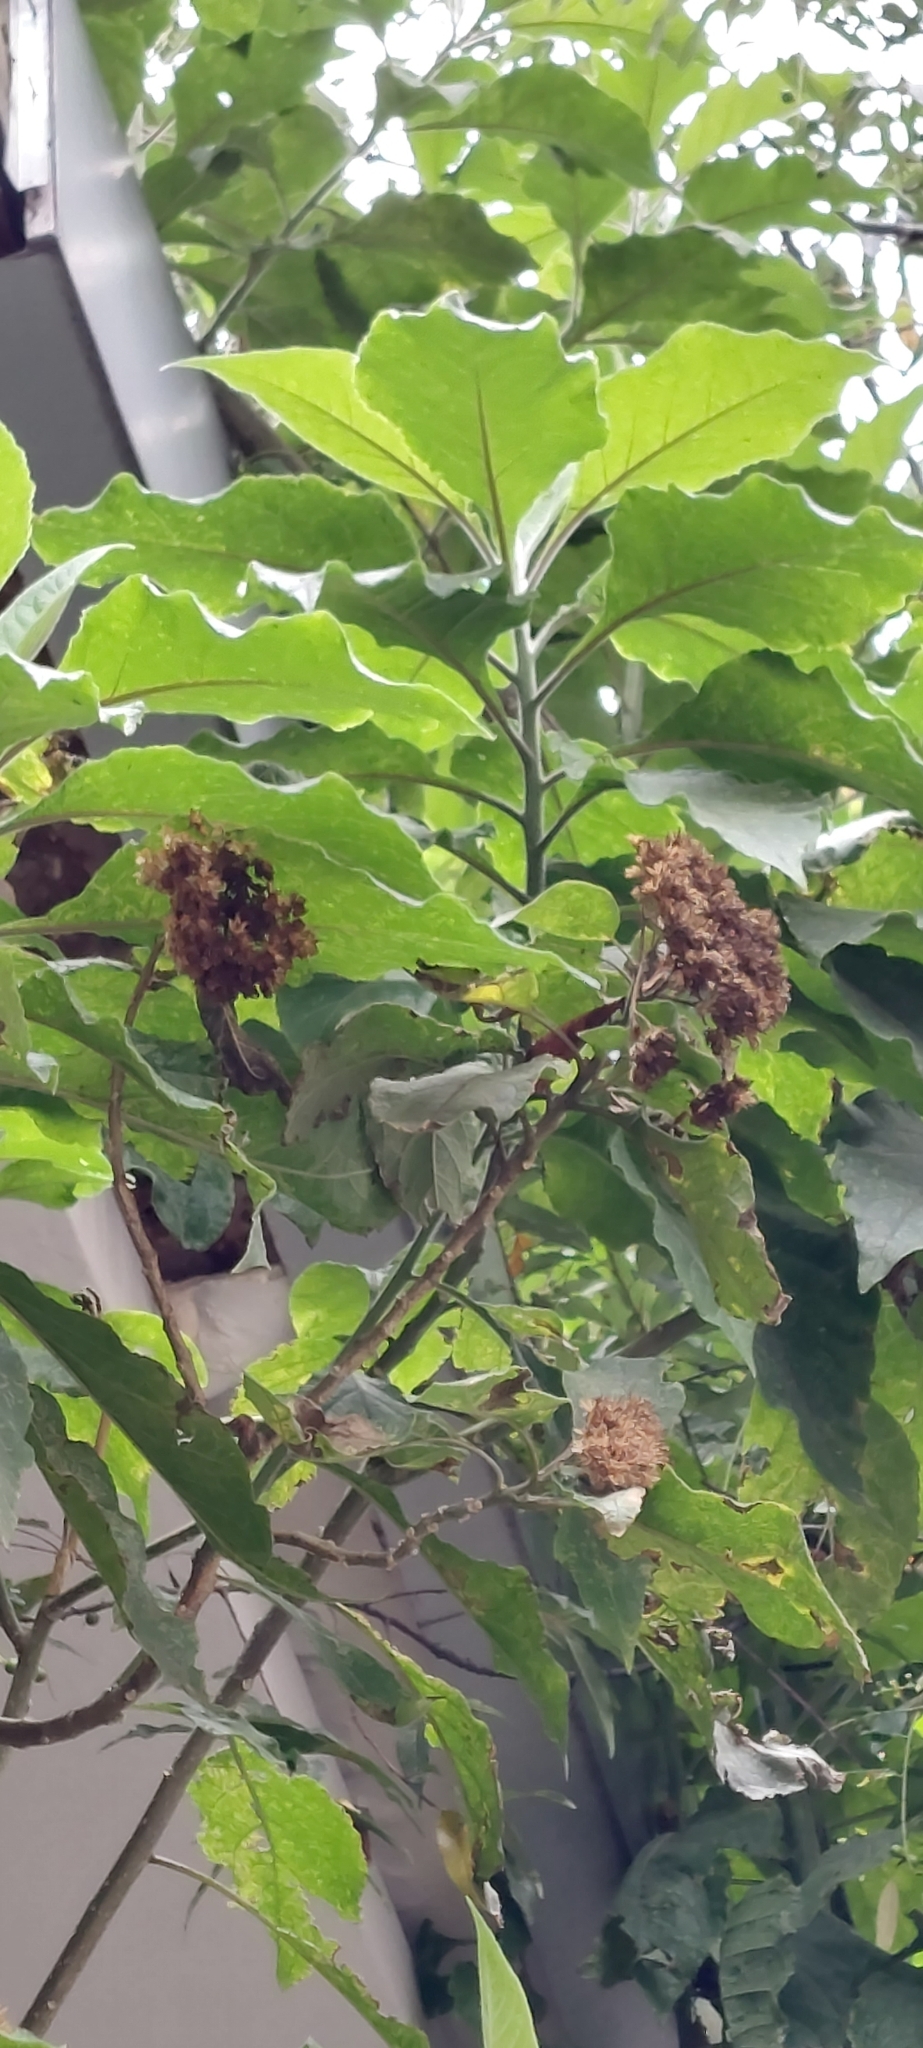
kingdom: Plantae
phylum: Tracheophyta
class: Magnoliopsida
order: Asterales
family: Asteraceae
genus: Smallanthus
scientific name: Smallanthus pyramidalis
